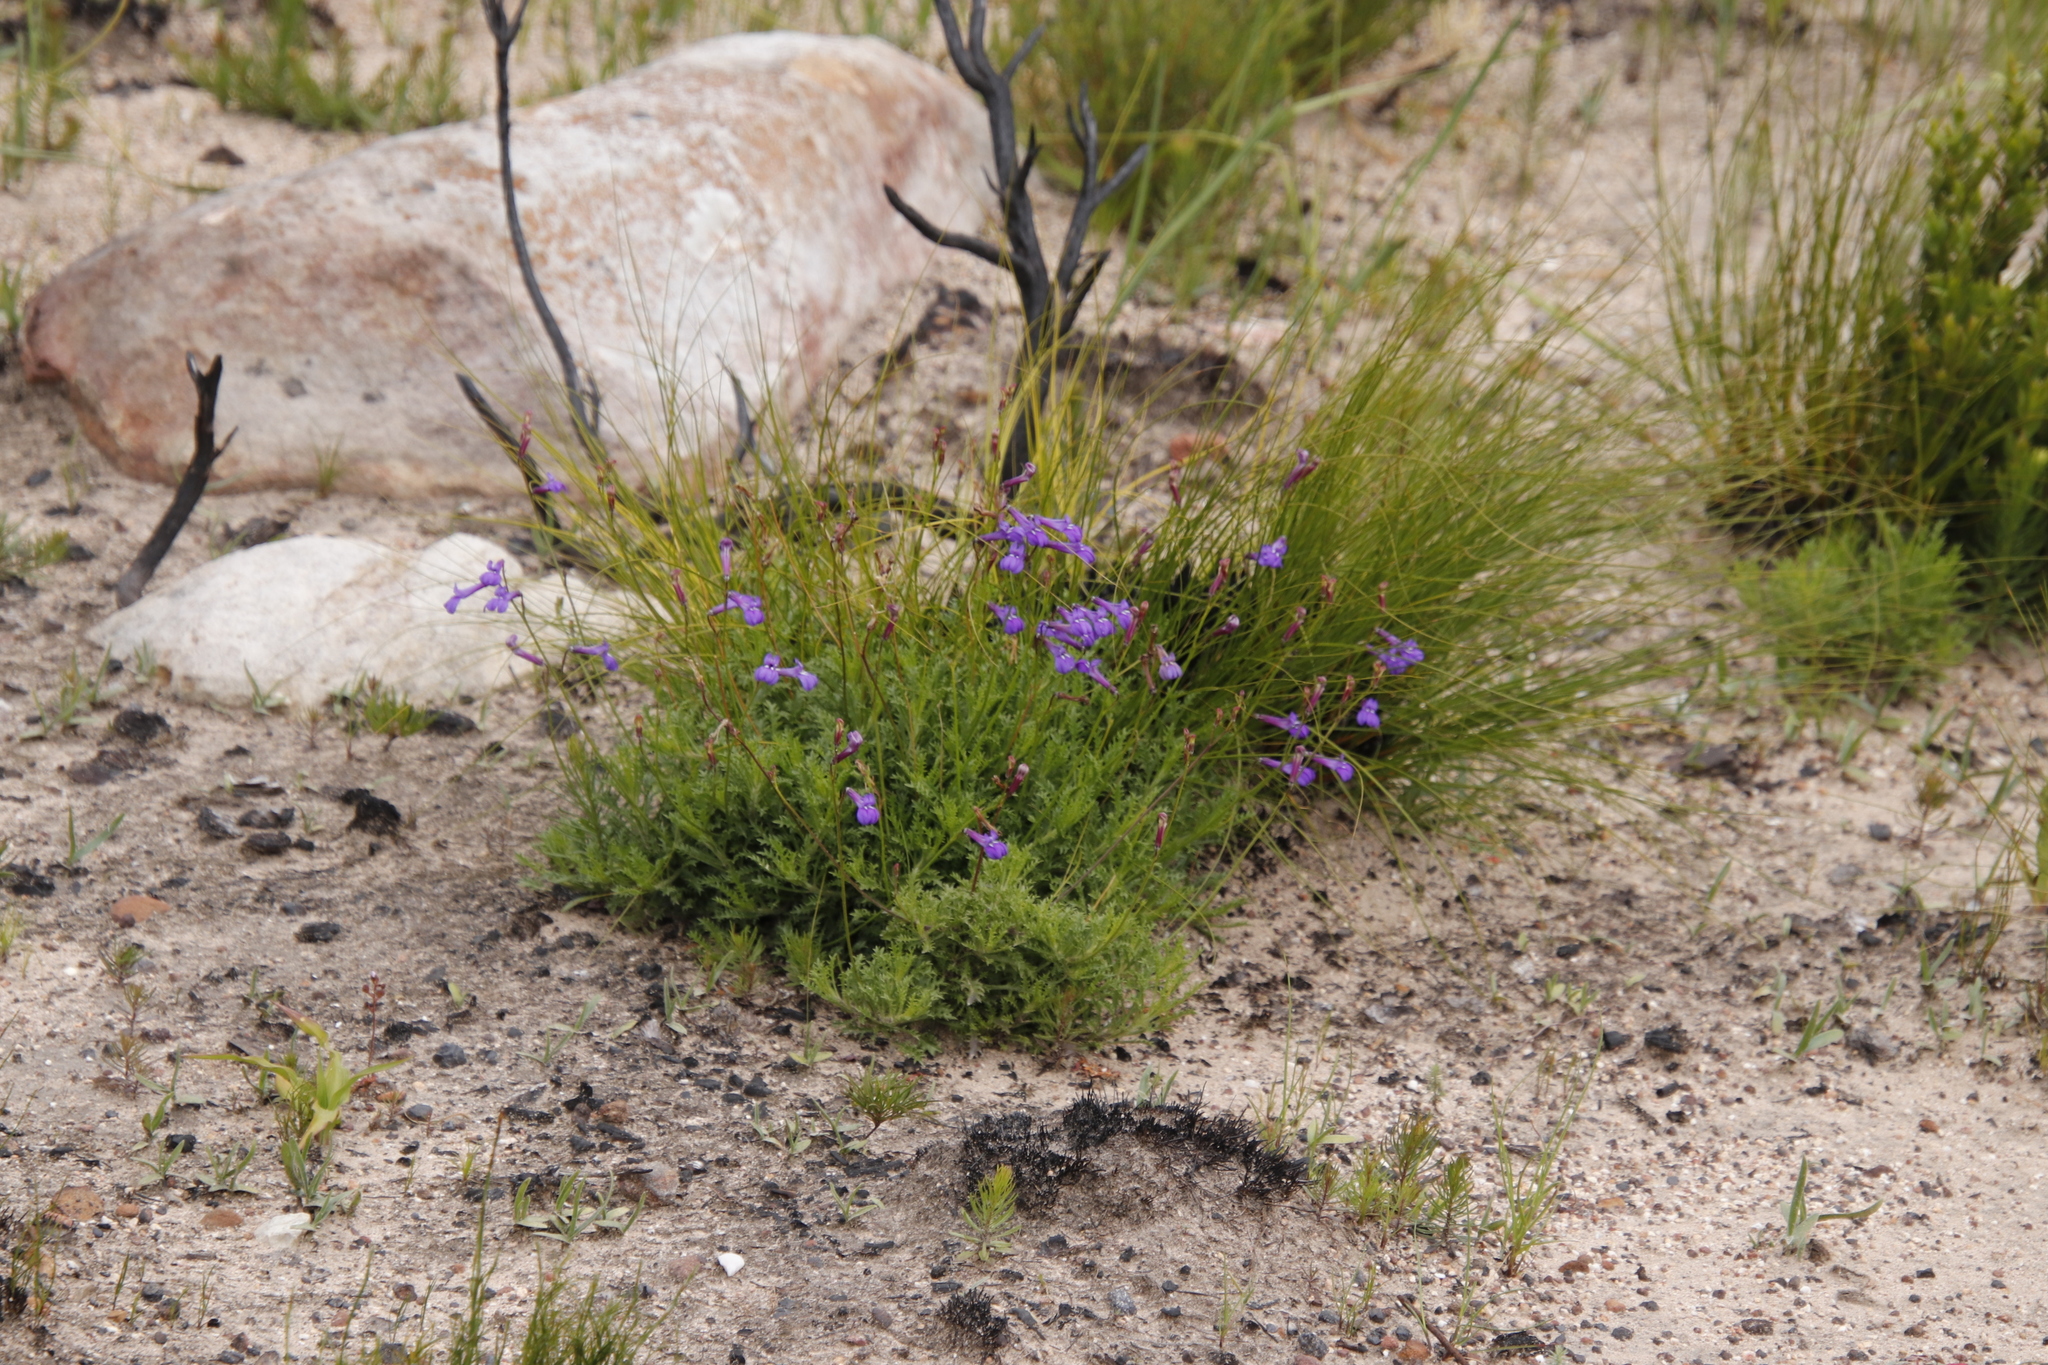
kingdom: Plantae
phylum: Tracheophyta
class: Magnoliopsida
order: Asterales
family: Campanulaceae
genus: Lobelia
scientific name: Lobelia coronopifolia
